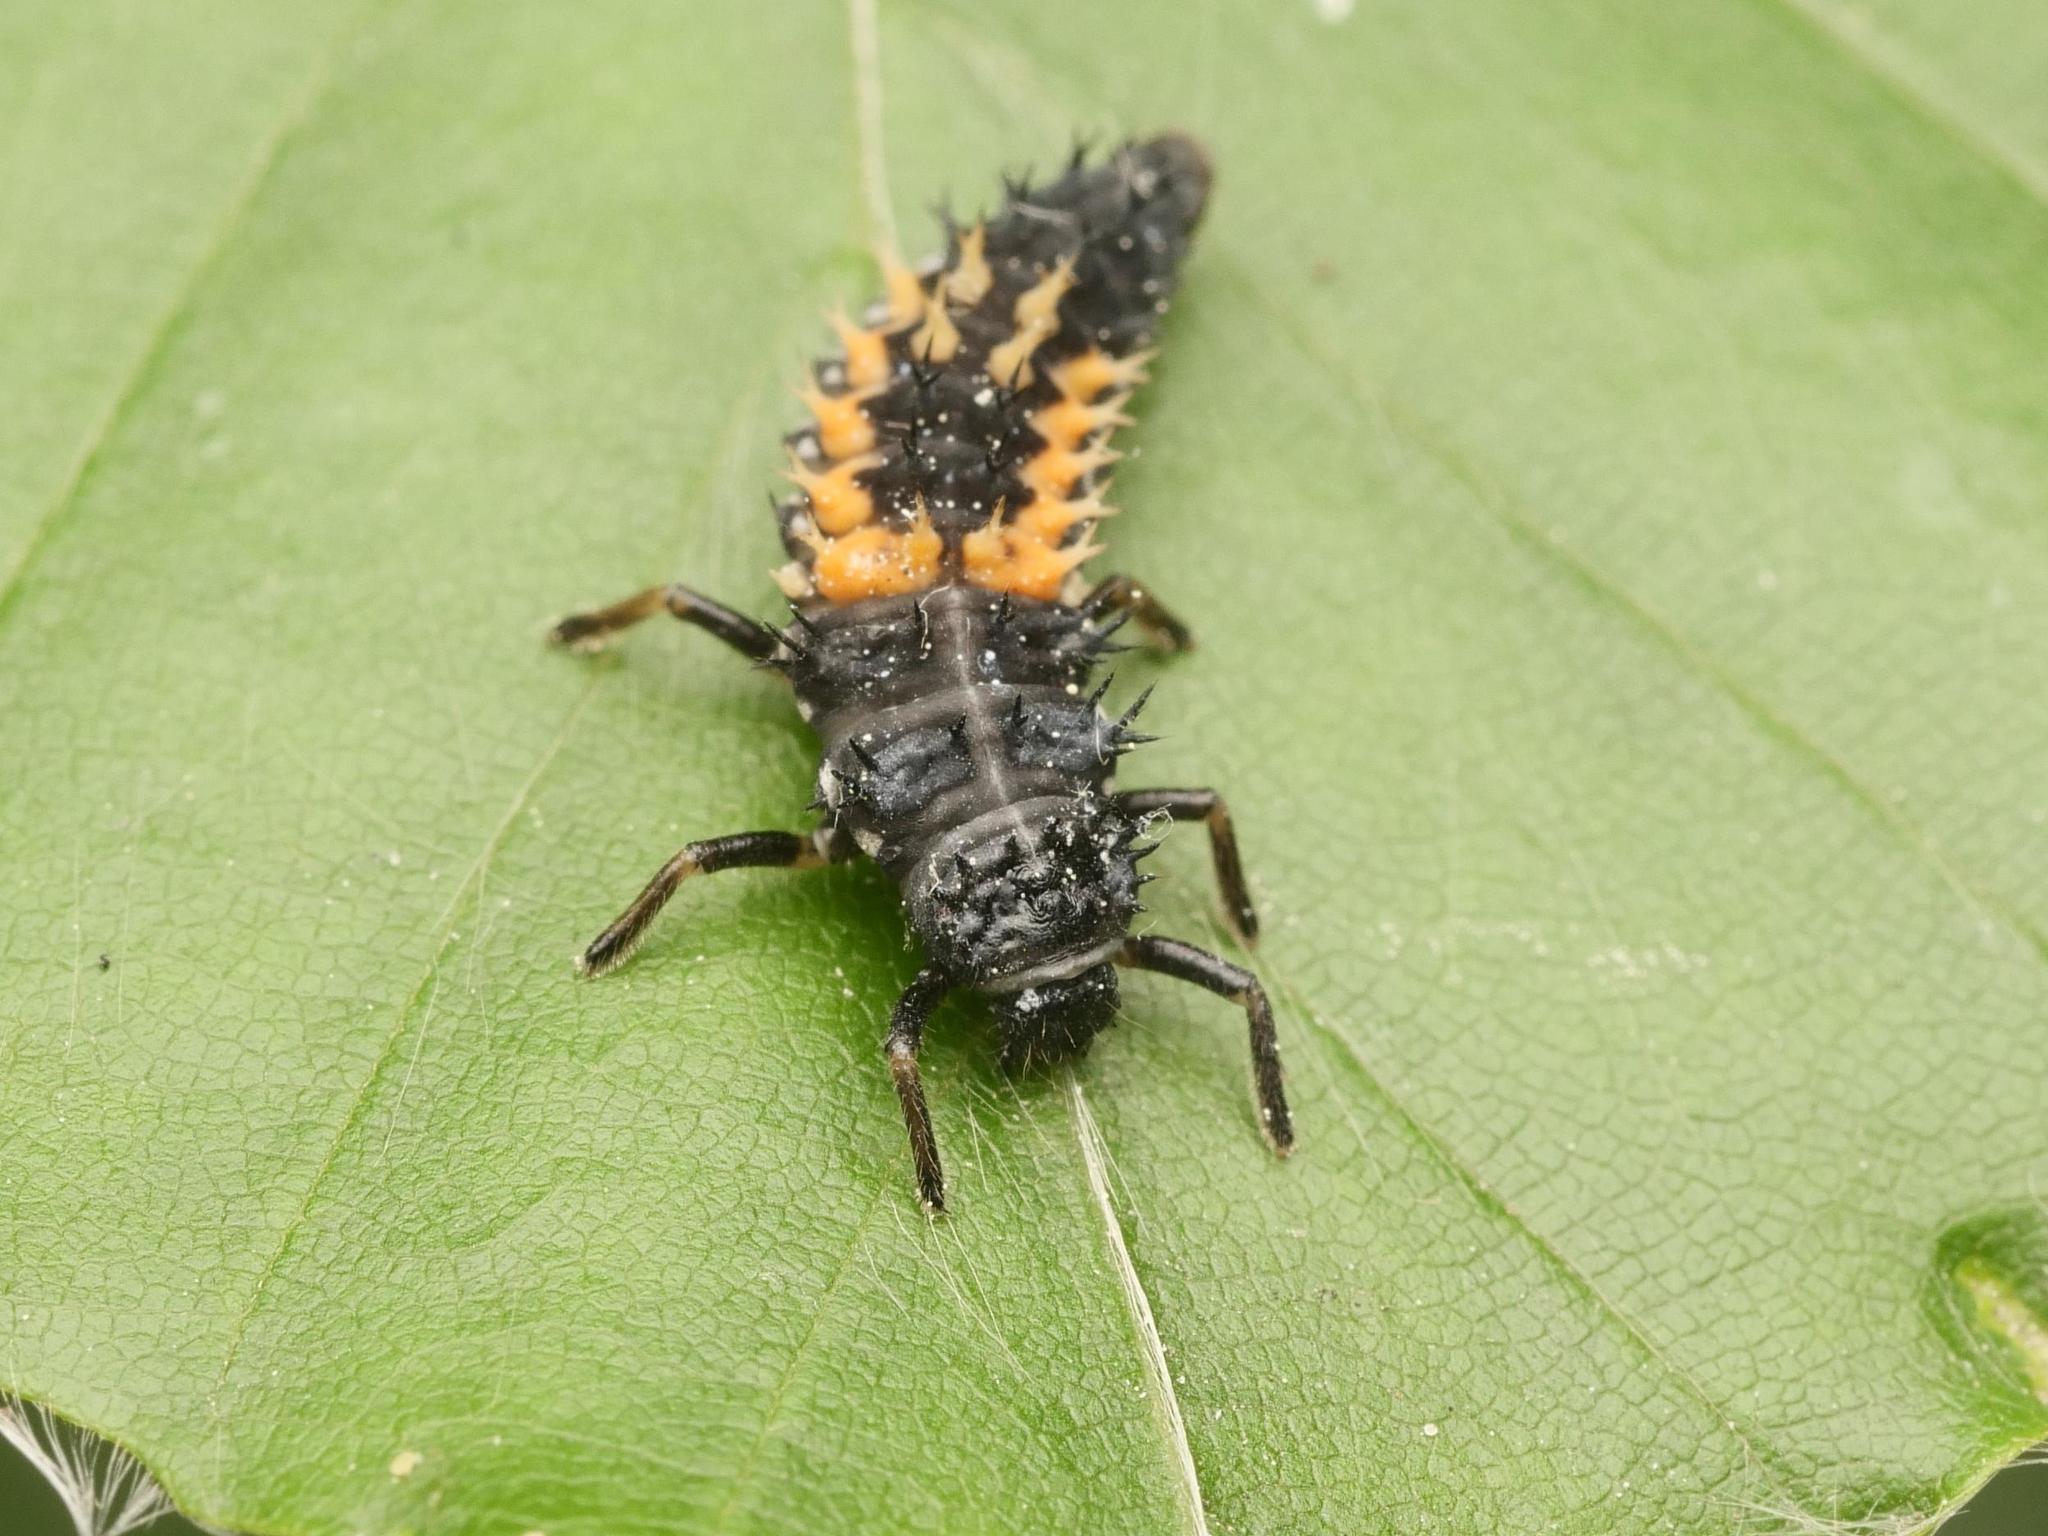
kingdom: Animalia
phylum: Arthropoda
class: Insecta
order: Coleoptera
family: Coccinellidae
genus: Harmonia
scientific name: Harmonia axyridis
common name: Harlequin ladybird
